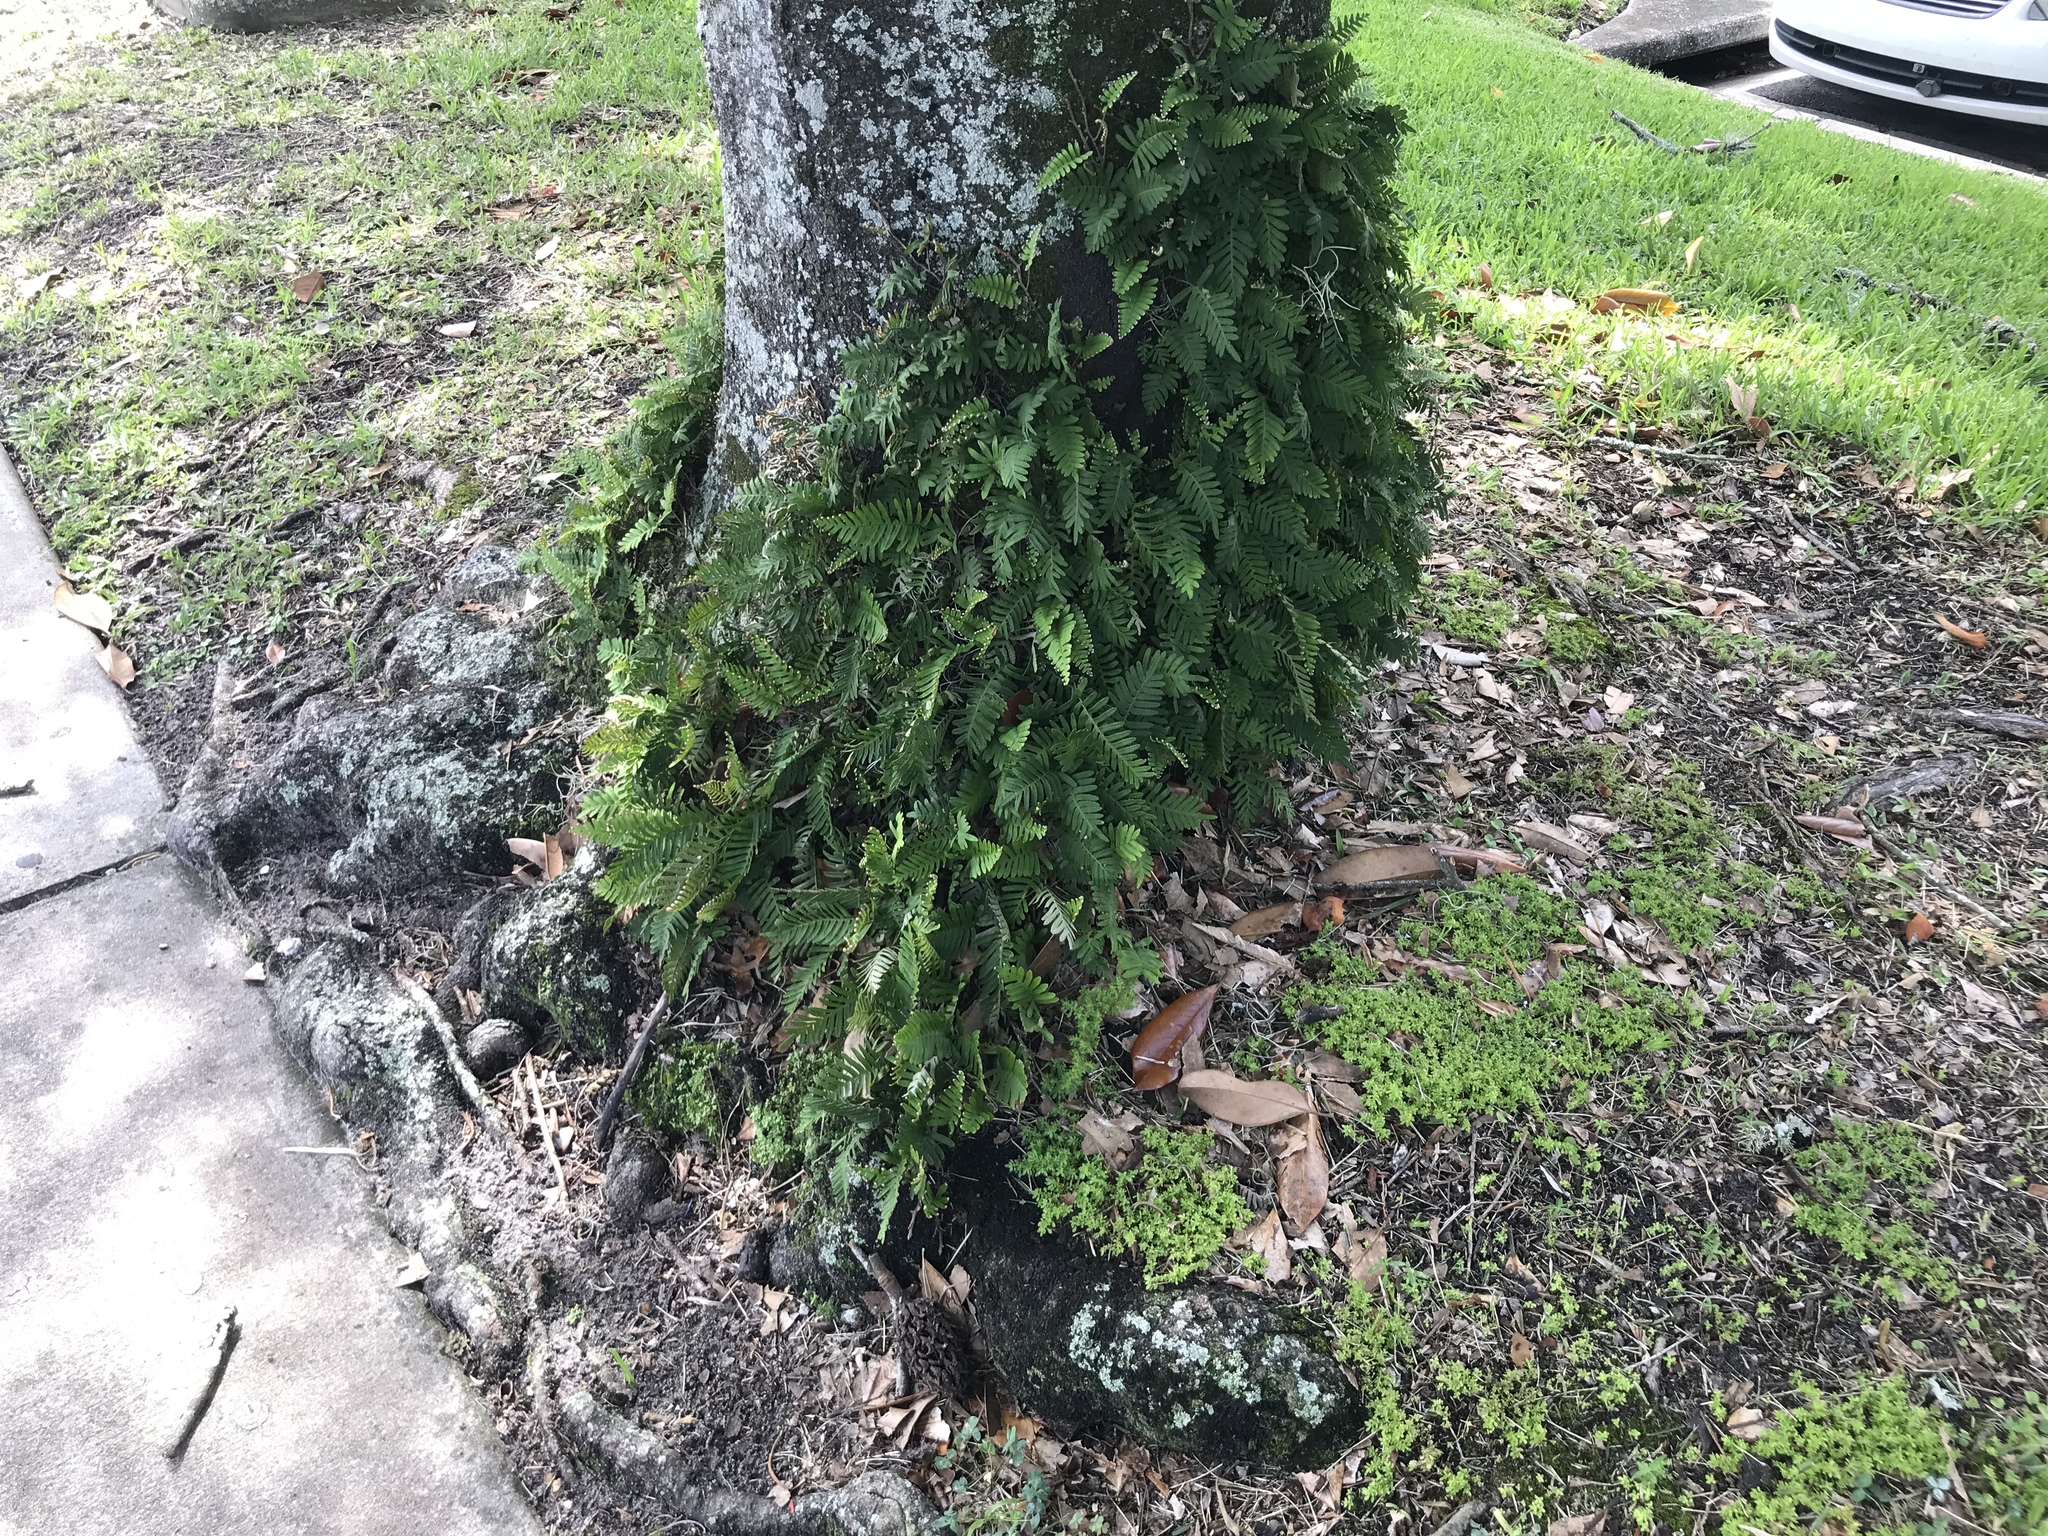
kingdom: Plantae
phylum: Tracheophyta
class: Polypodiopsida
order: Polypodiales
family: Polypodiaceae
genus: Pleopeltis
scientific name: Pleopeltis michauxiana
